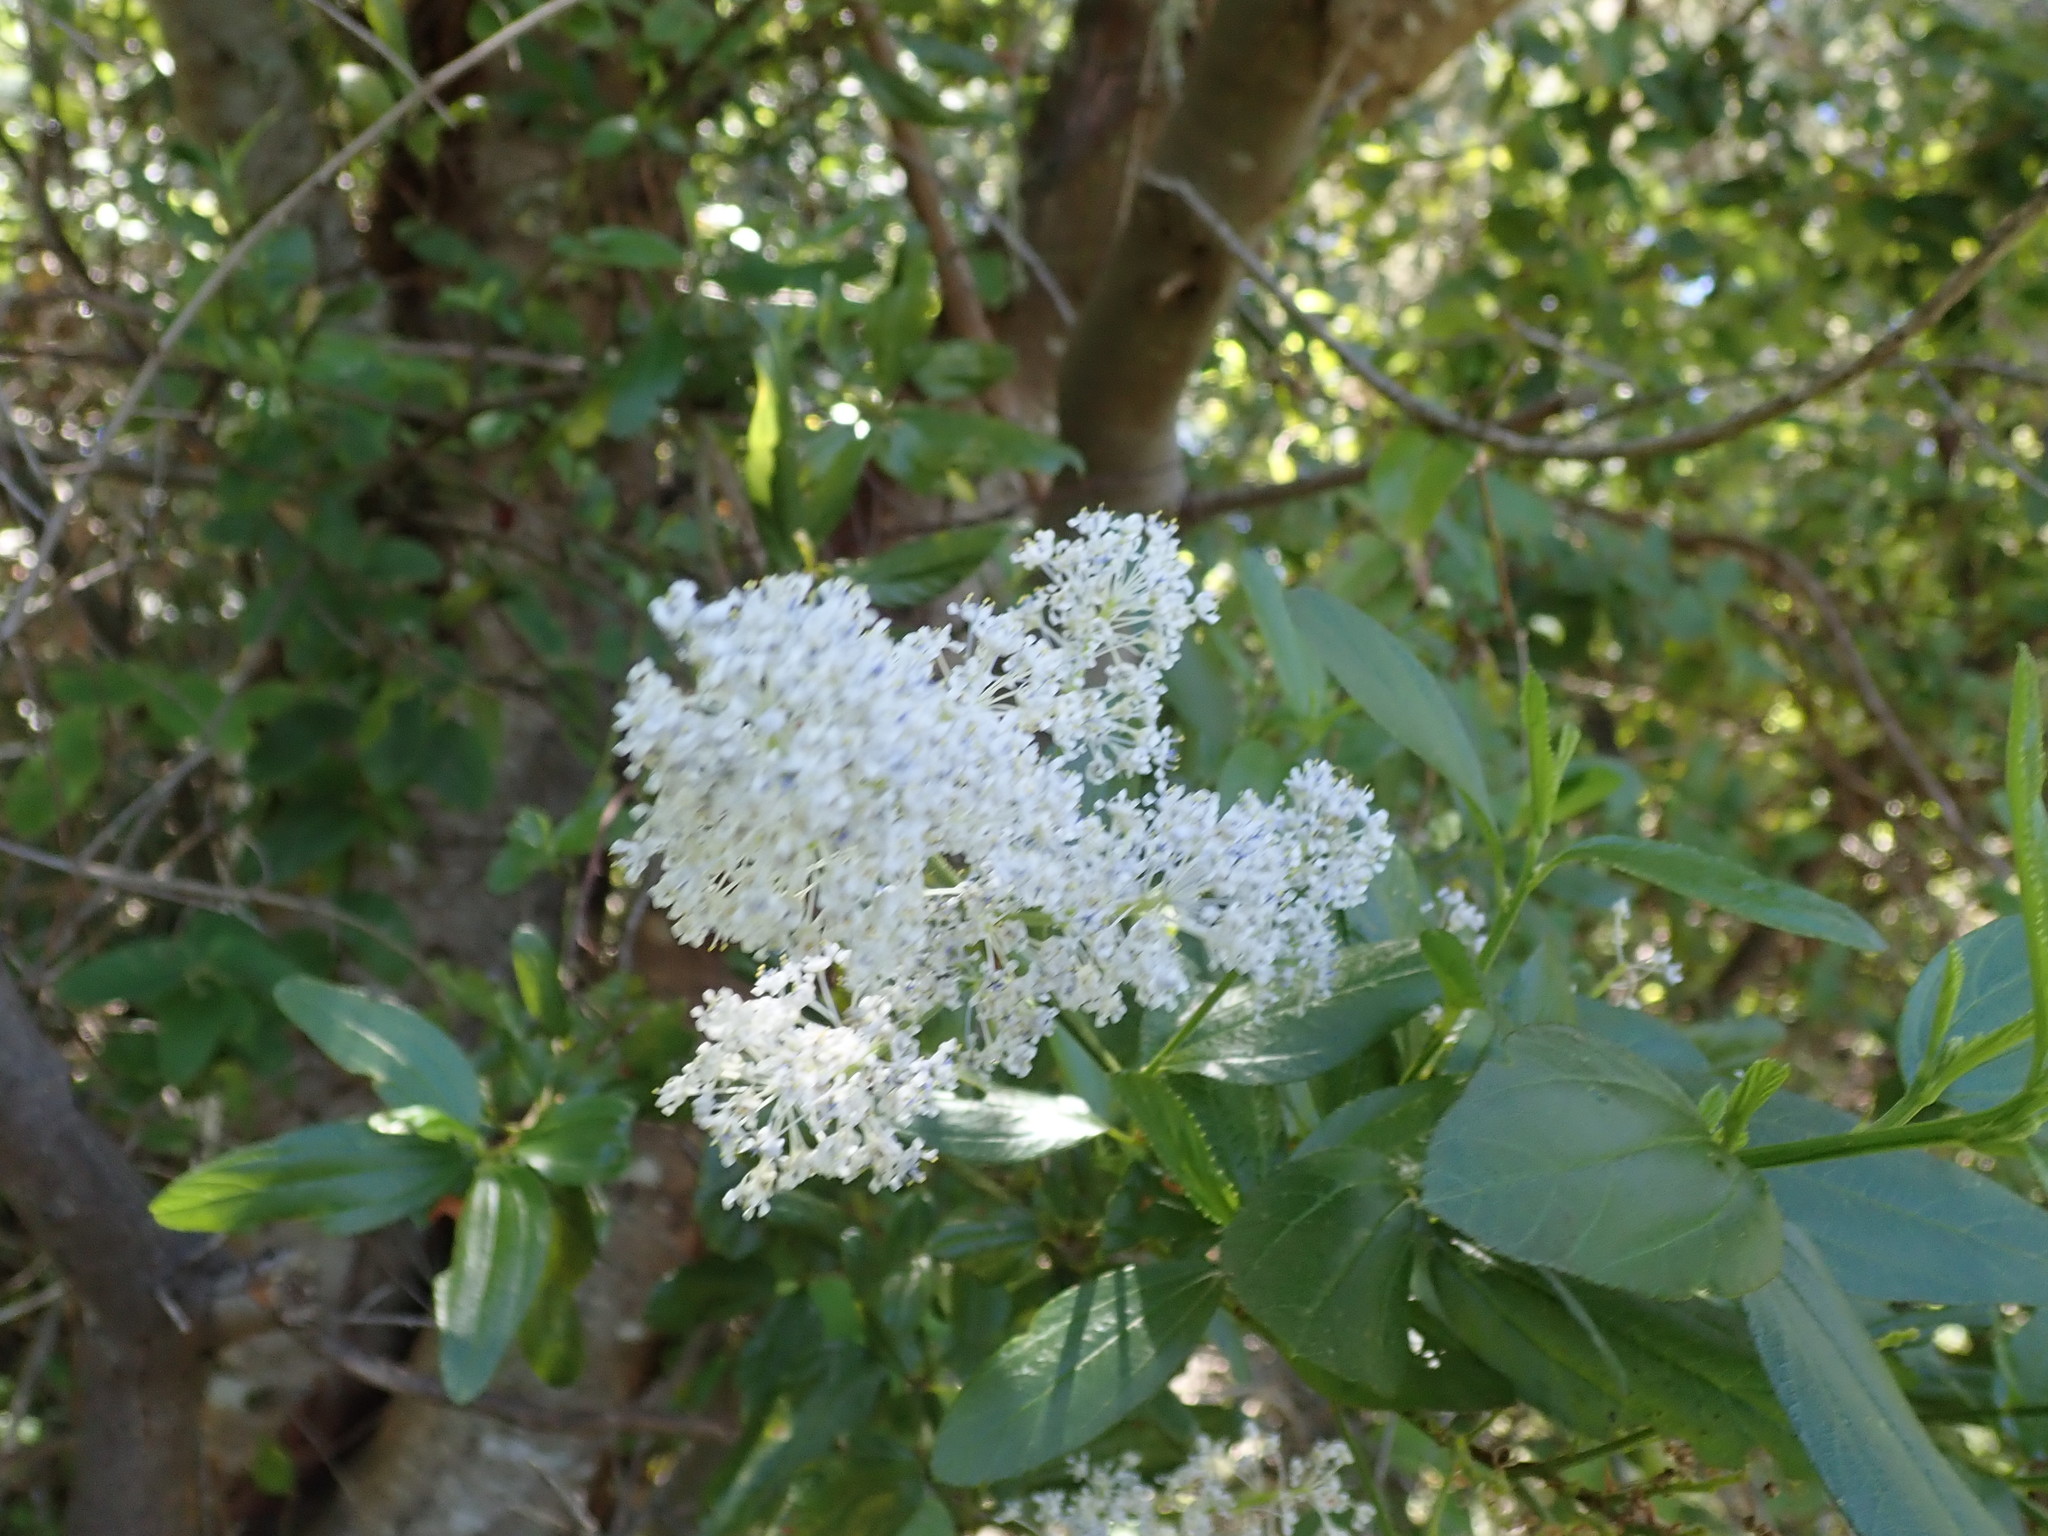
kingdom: Plantae
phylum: Tracheophyta
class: Magnoliopsida
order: Rosales
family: Rhamnaceae
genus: Ceanothus
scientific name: Ceanothus thyrsiflorus
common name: California-lilac
